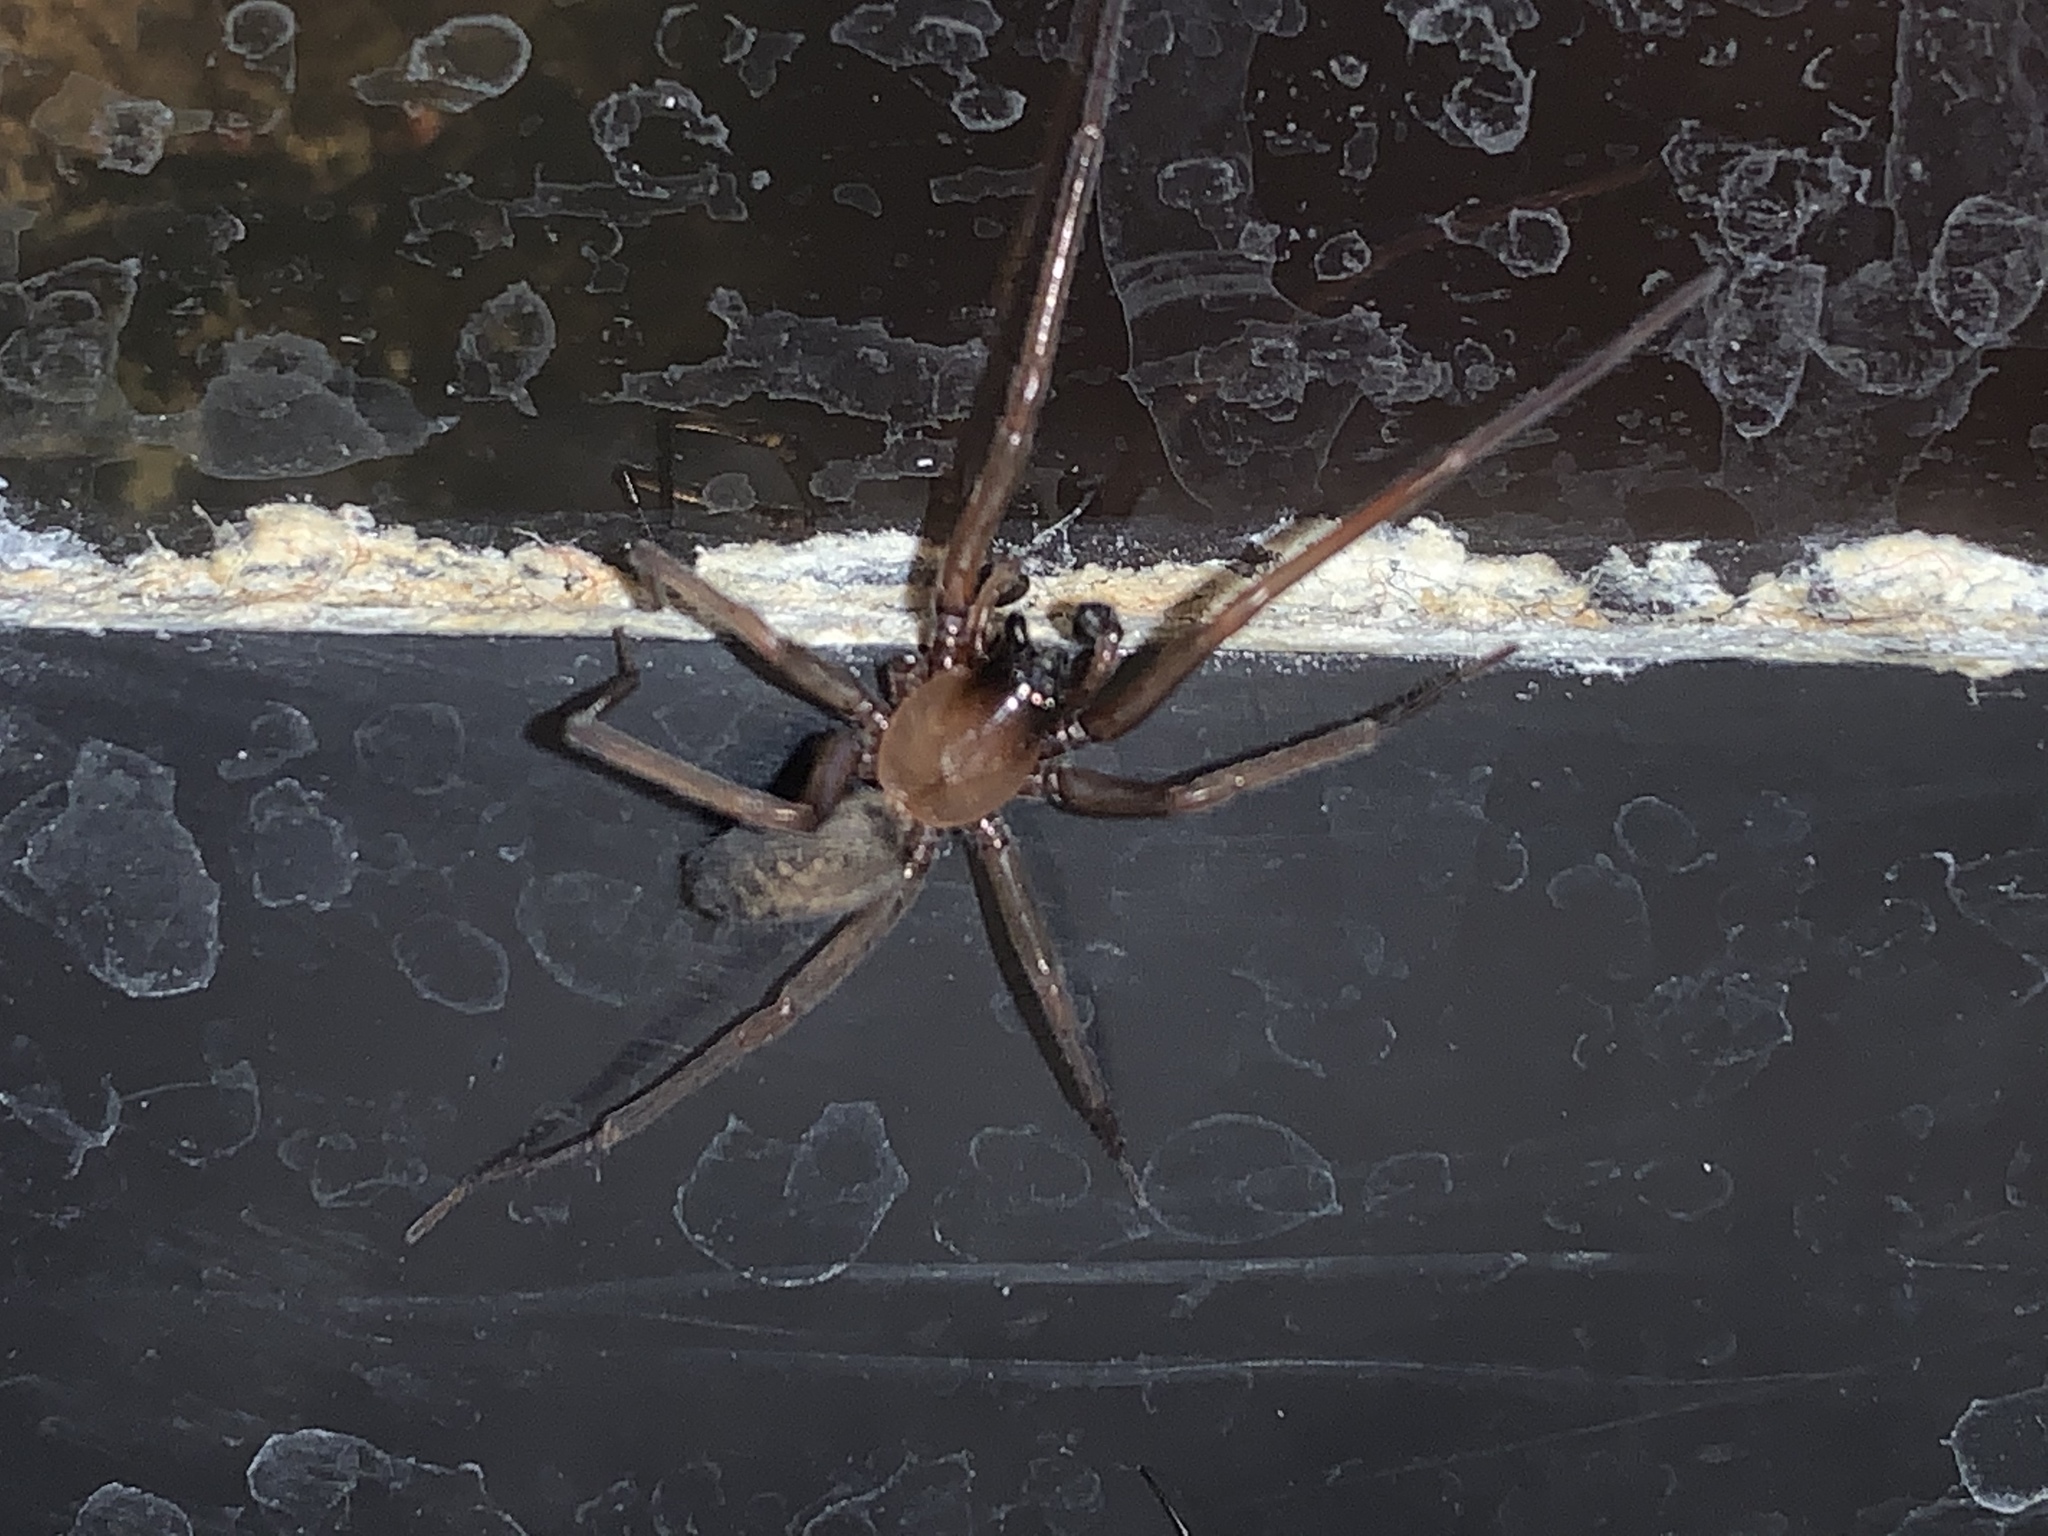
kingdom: Animalia
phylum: Arthropoda
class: Arachnida
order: Araneae
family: Desidae
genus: Metaltella
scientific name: Metaltella simoni
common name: Cribellate spider
